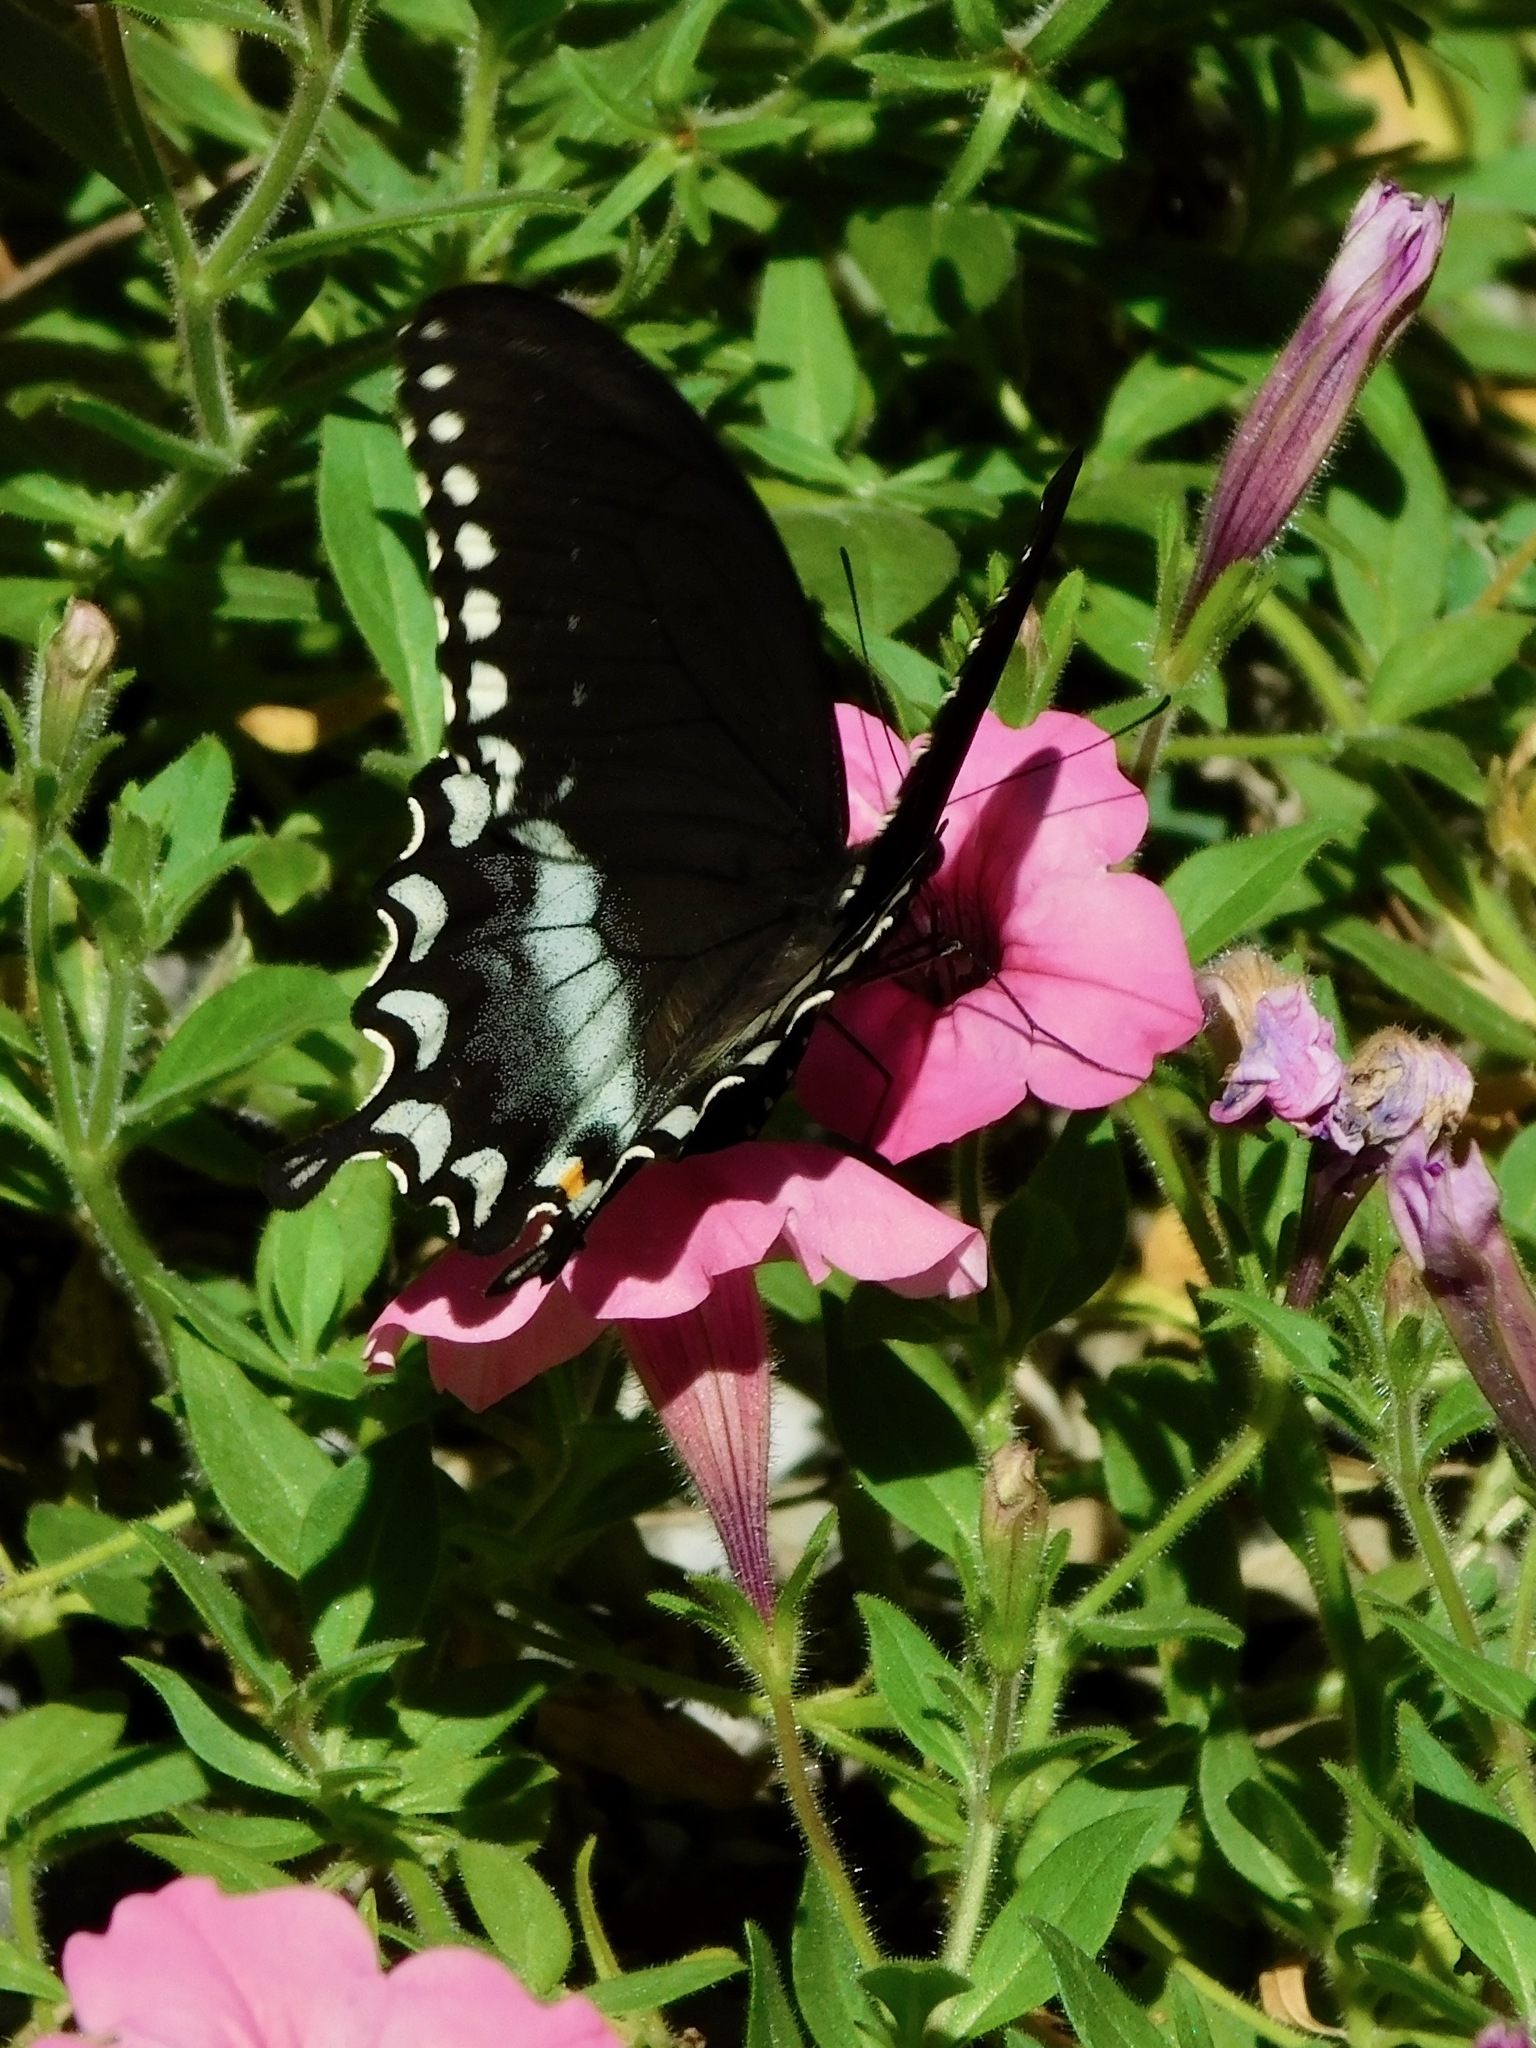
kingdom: Animalia
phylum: Arthropoda
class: Insecta
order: Lepidoptera
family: Papilionidae
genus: Papilio
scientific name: Papilio troilus
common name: Spicebush swallowtail
